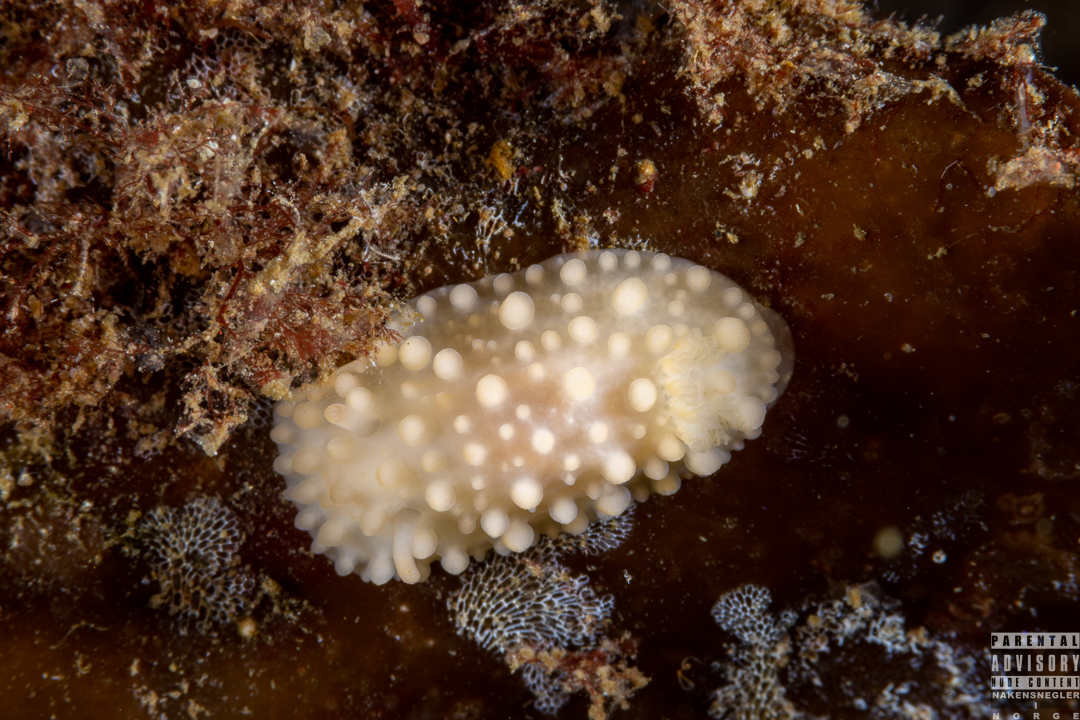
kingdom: Animalia
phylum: Mollusca
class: Gastropoda
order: Nudibranchia
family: Onchidorididae
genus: Adalaria
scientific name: Adalaria loveni
